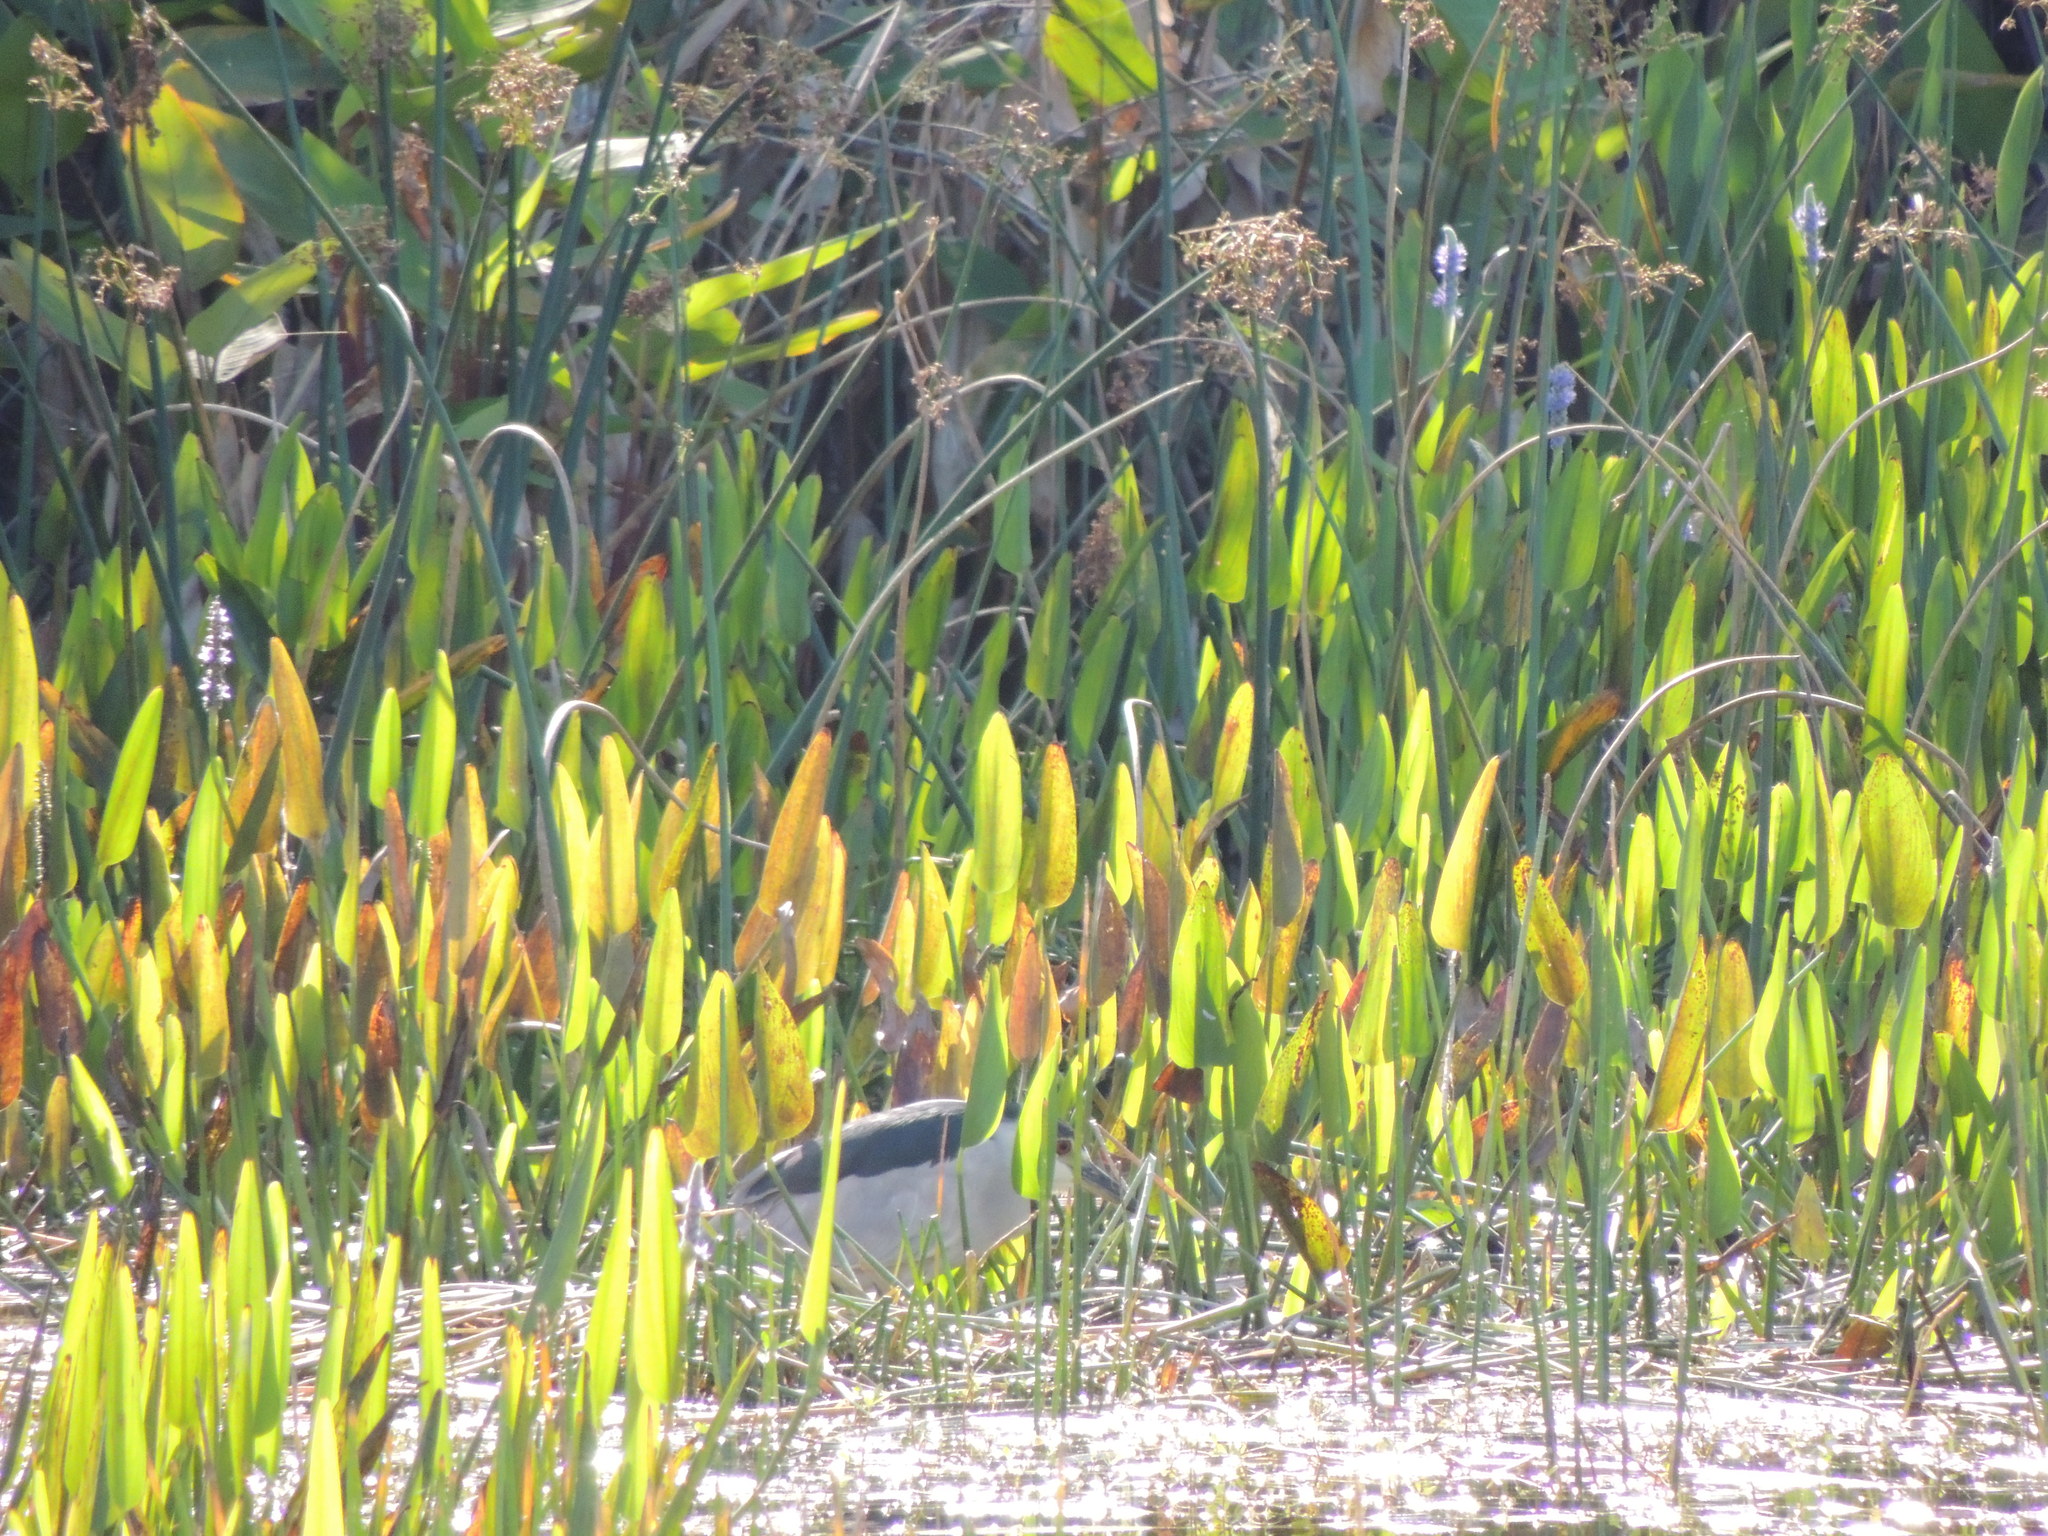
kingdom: Animalia
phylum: Chordata
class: Aves
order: Pelecaniformes
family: Ardeidae
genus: Nycticorax
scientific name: Nycticorax nycticorax
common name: Black-crowned night heron
